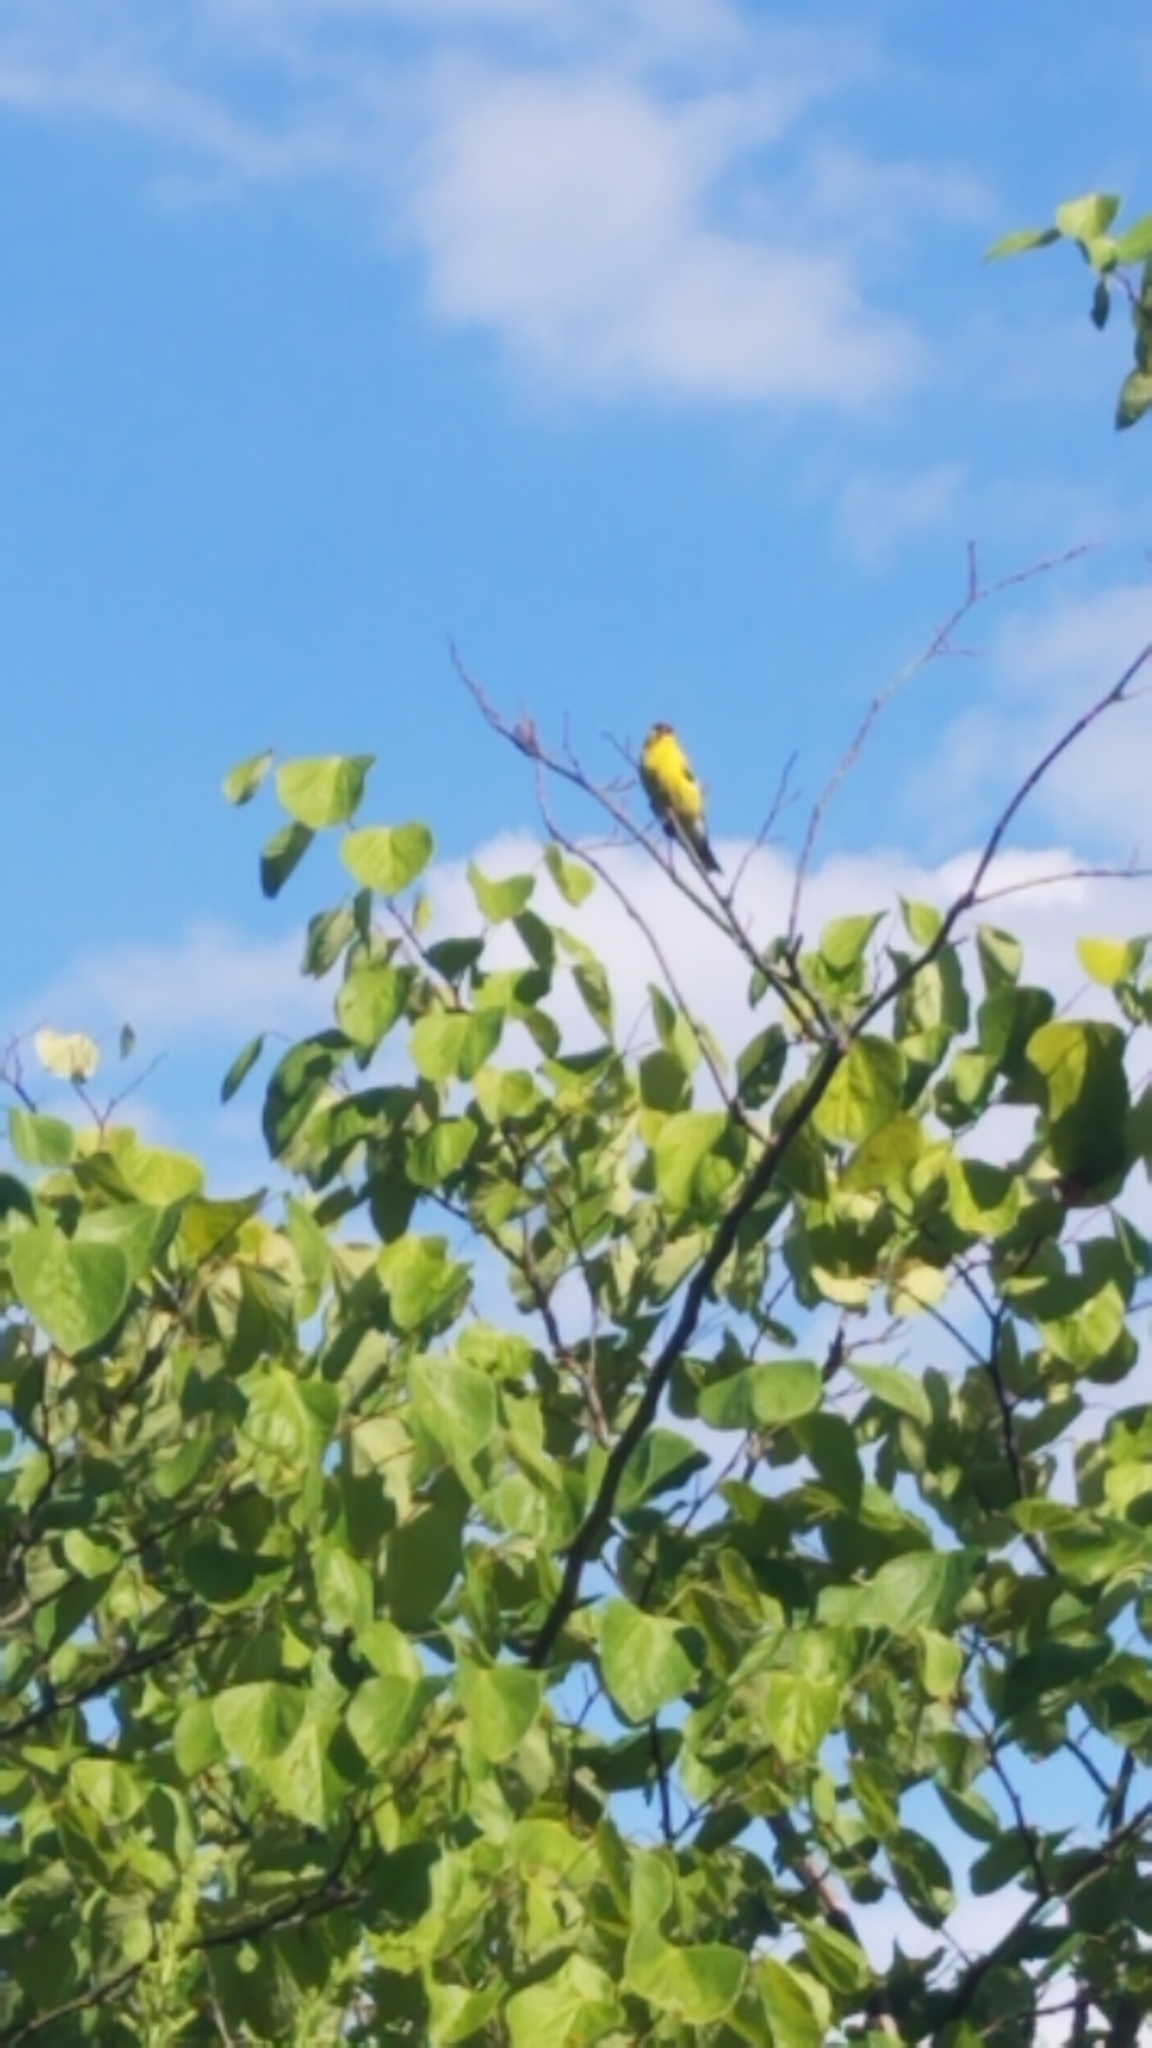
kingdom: Animalia
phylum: Chordata
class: Aves
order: Passeriformes
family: Fringillidae
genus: Spinus
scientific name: Spinus tristis
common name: American goldfinch
